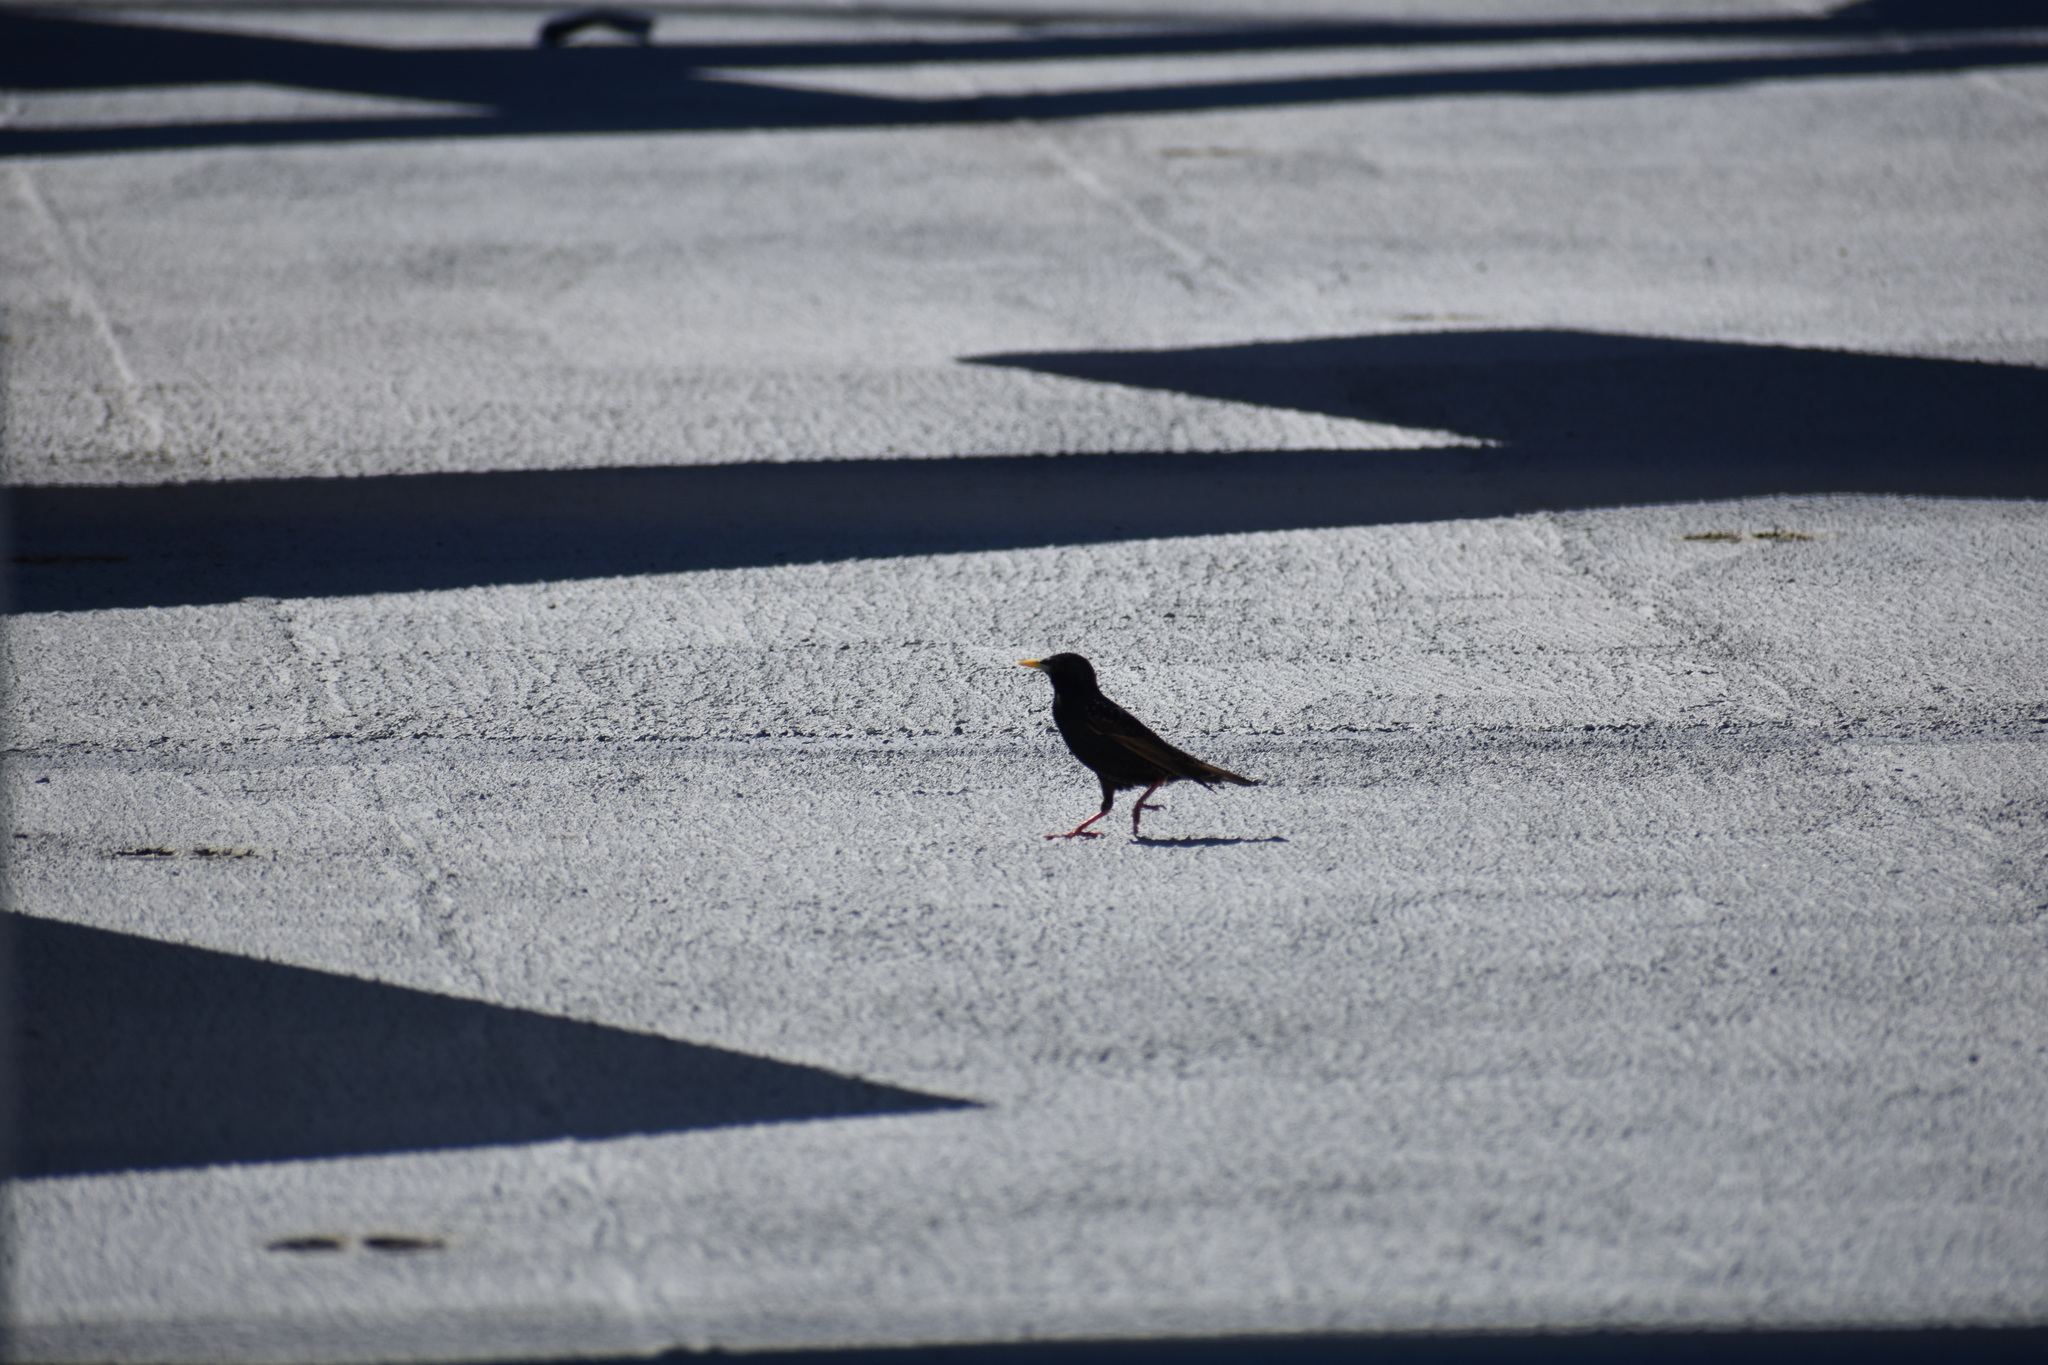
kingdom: Animalia
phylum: Chordata
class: Aves
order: Passeriformes
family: Sturnidae
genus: Sturnus
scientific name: Sturnus vulgaris
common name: Common starling
